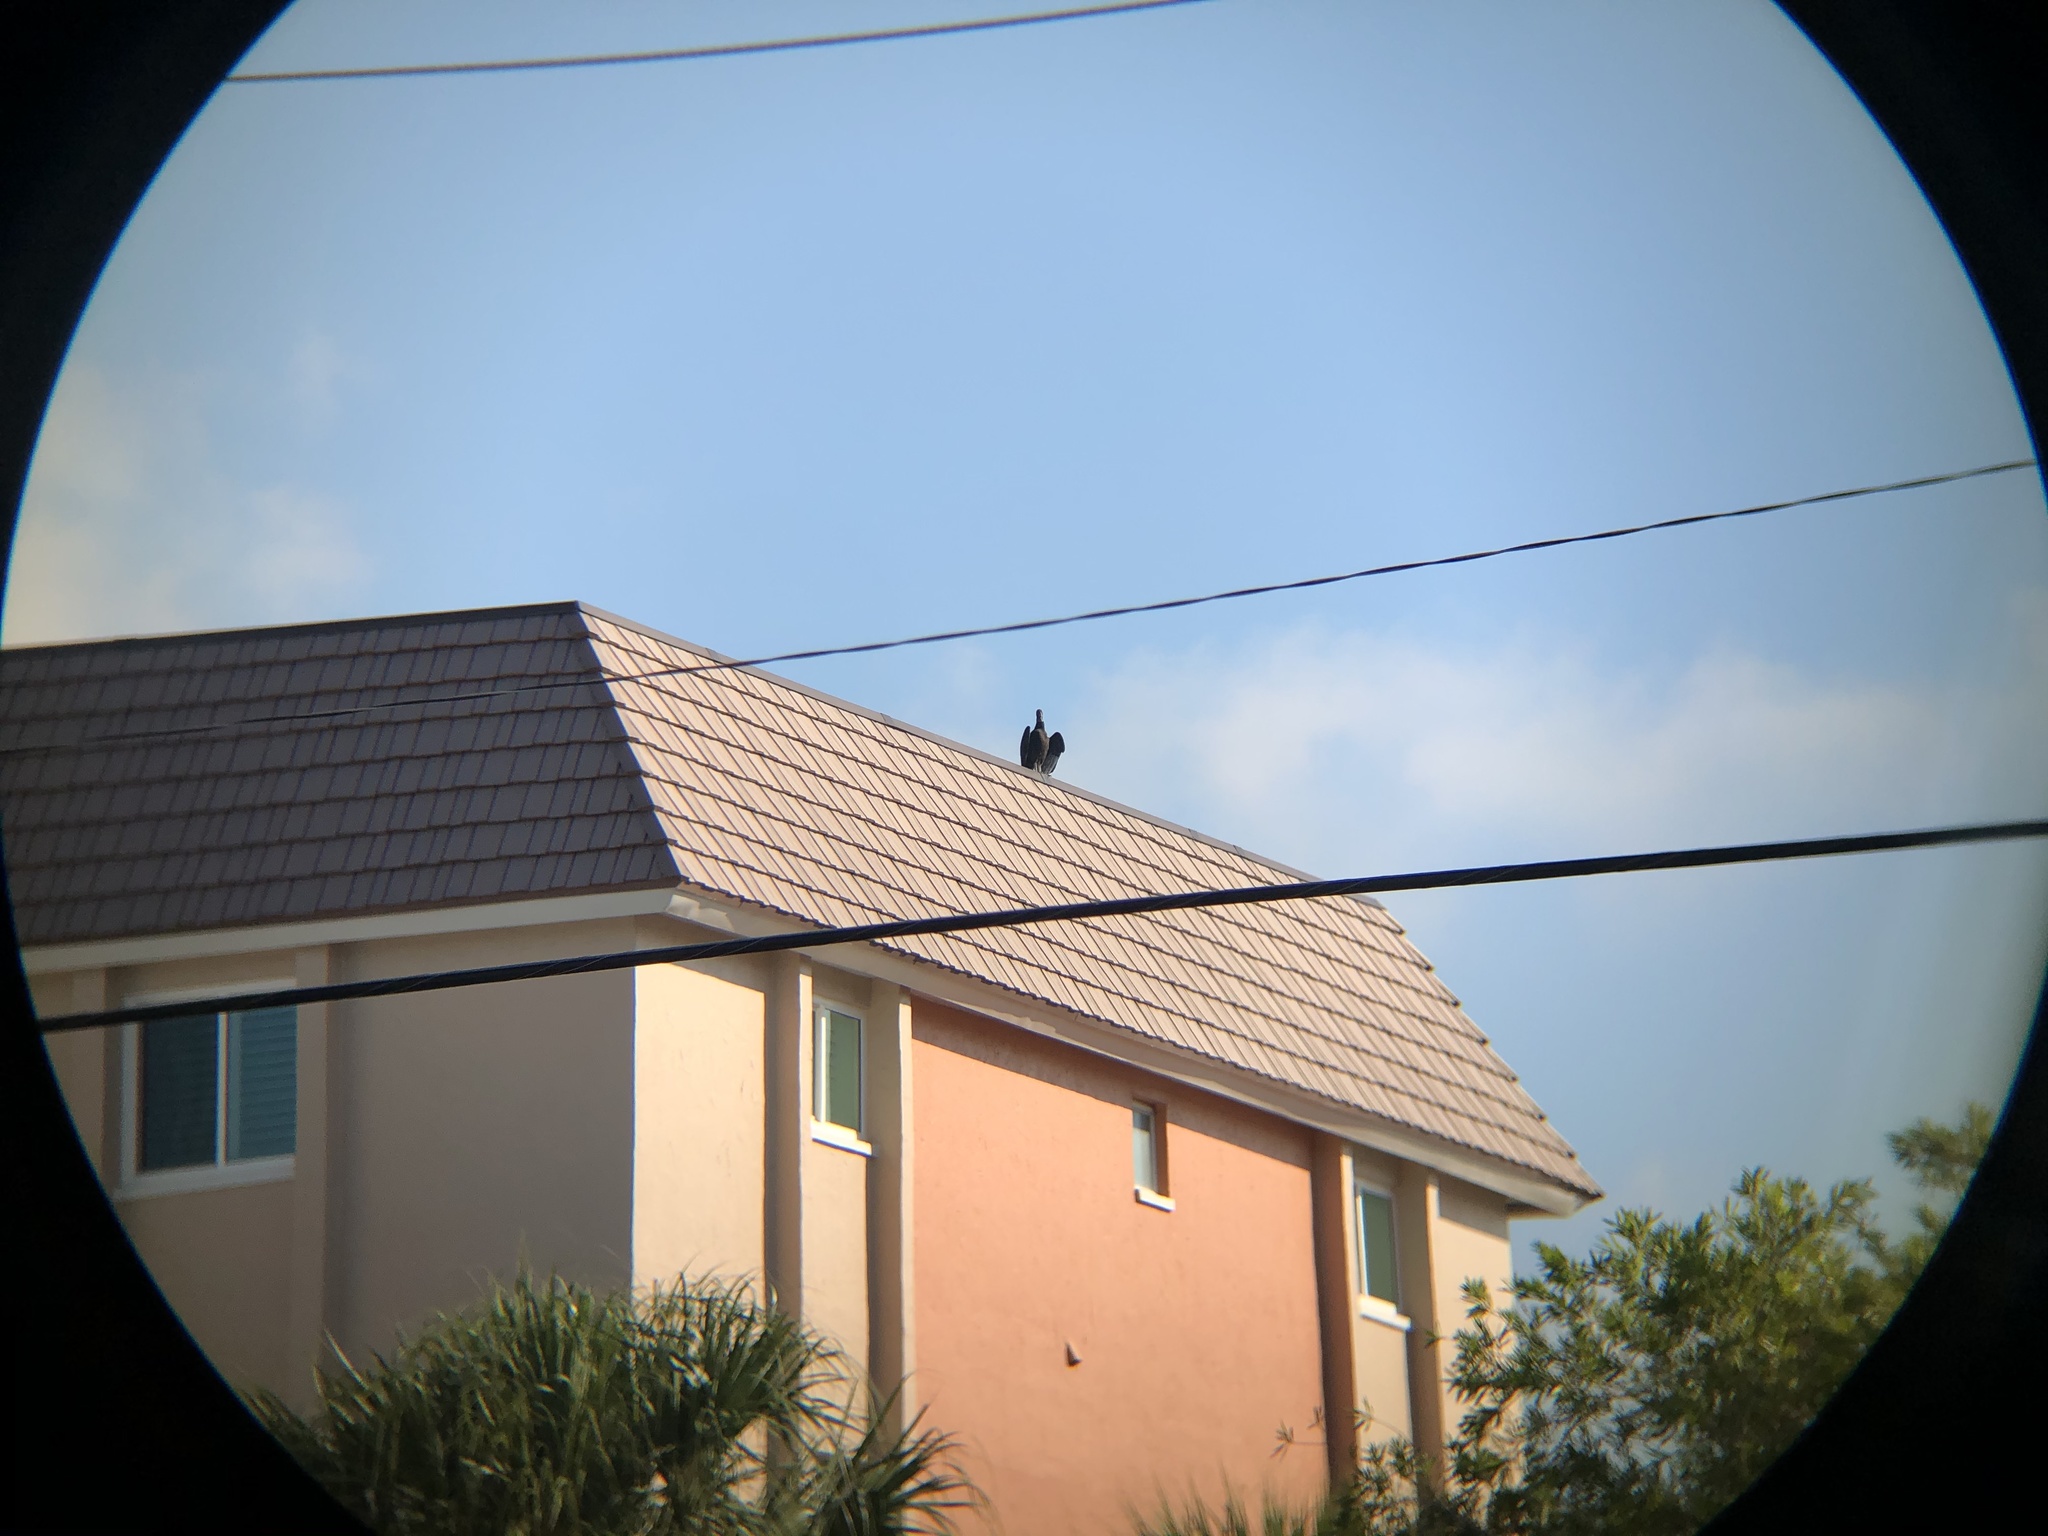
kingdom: Animalia
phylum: Chordata
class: Aves
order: Accipitriformes
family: Cathartidae
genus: Coragyps
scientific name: Coragyps atratus
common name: Black vulture
